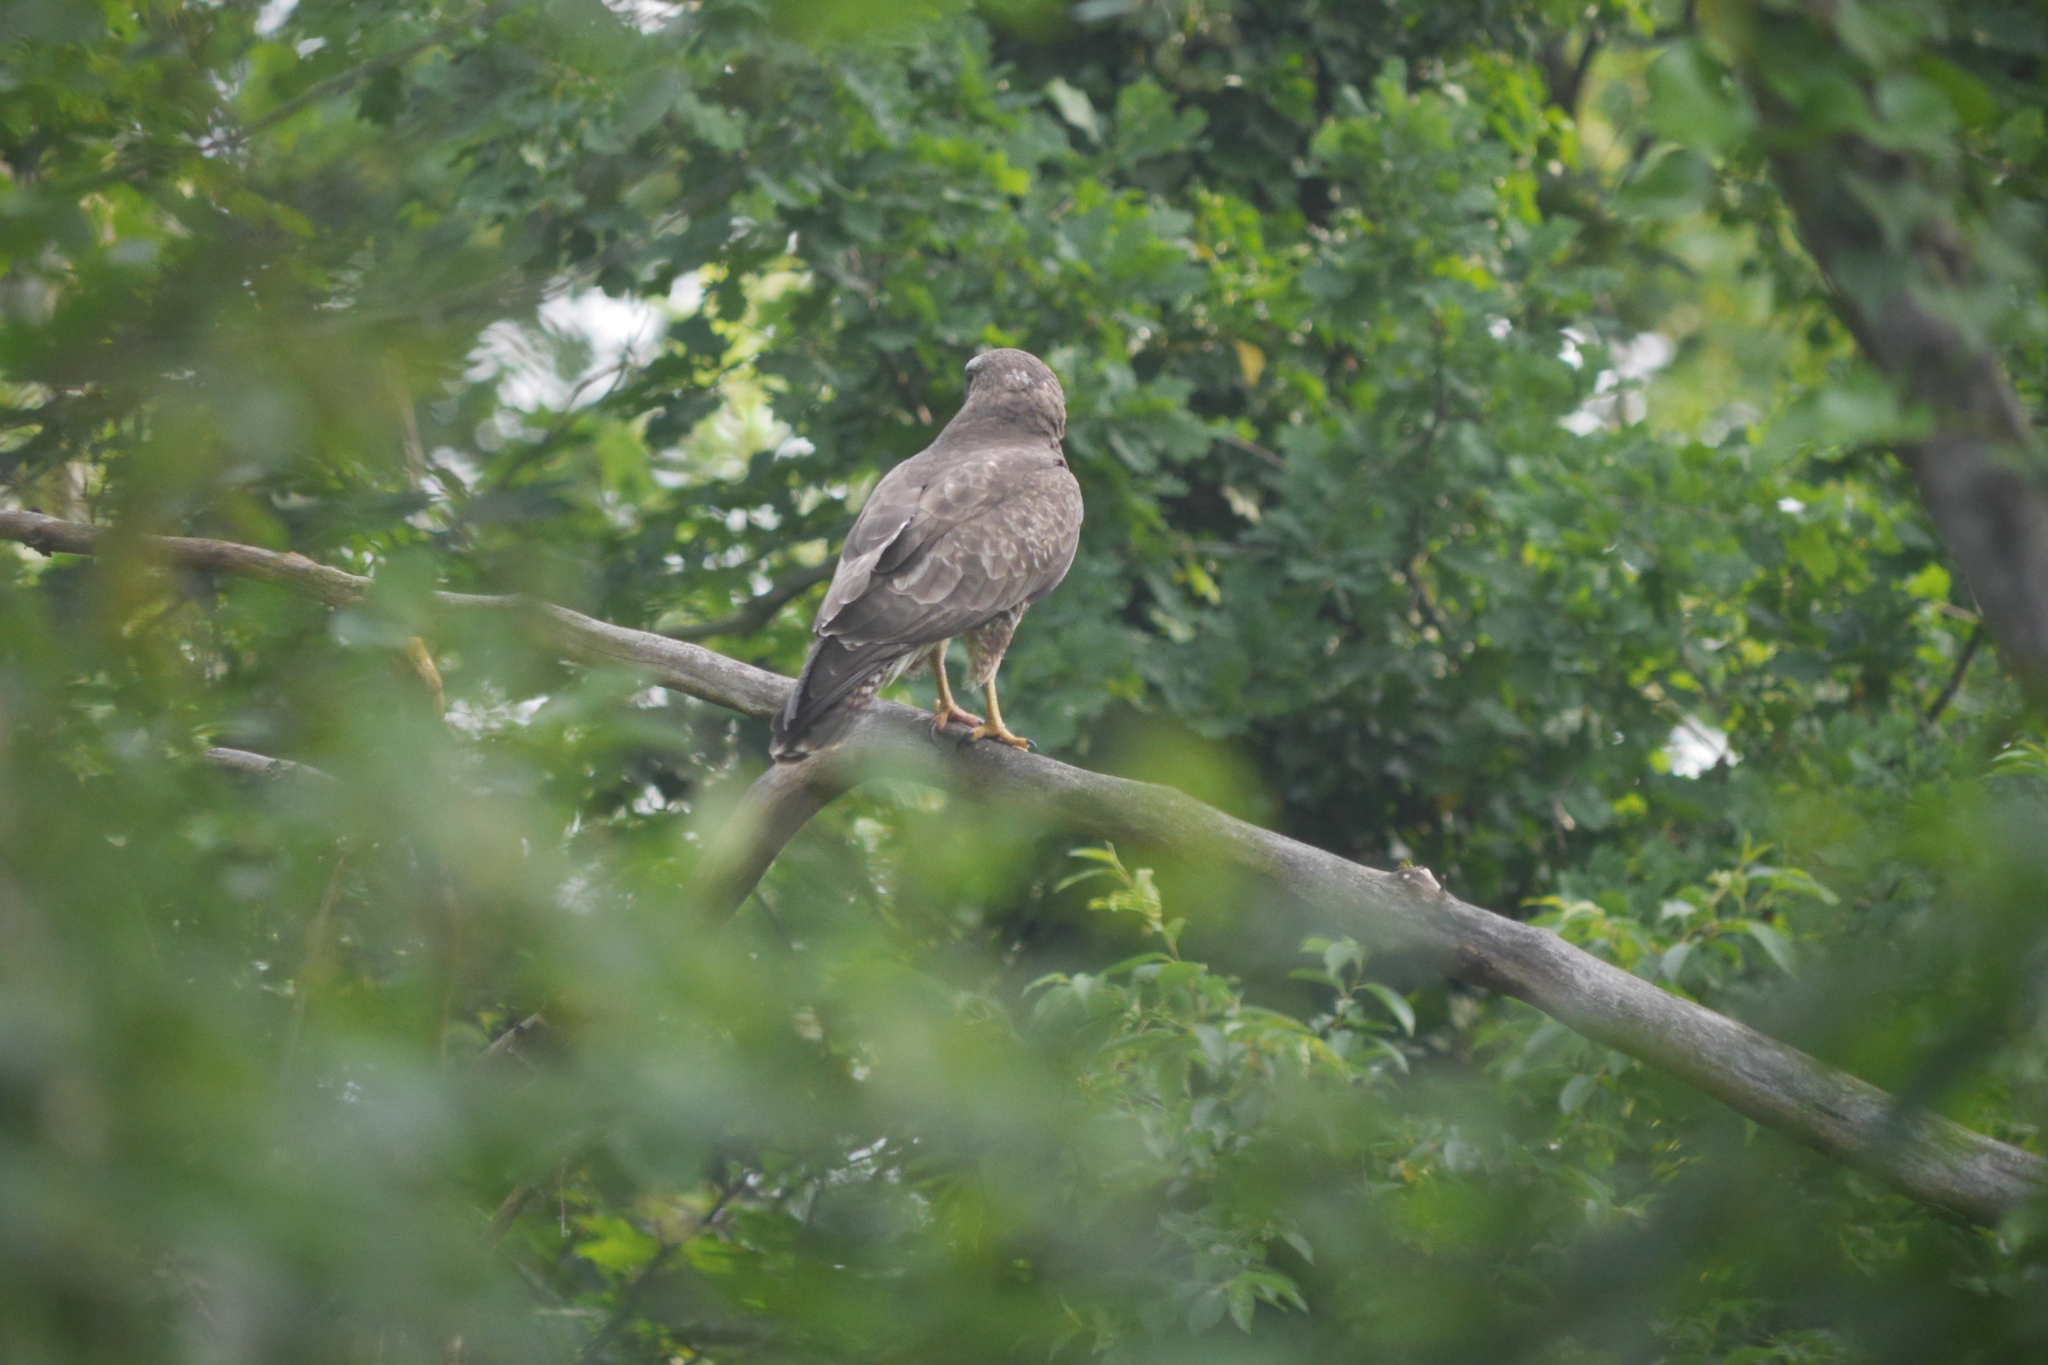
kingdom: Animalia
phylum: Chordata
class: Aves
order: Accipitriformes
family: Accipitridae
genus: Buteo
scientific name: Buteo buteo
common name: Common buzzard
